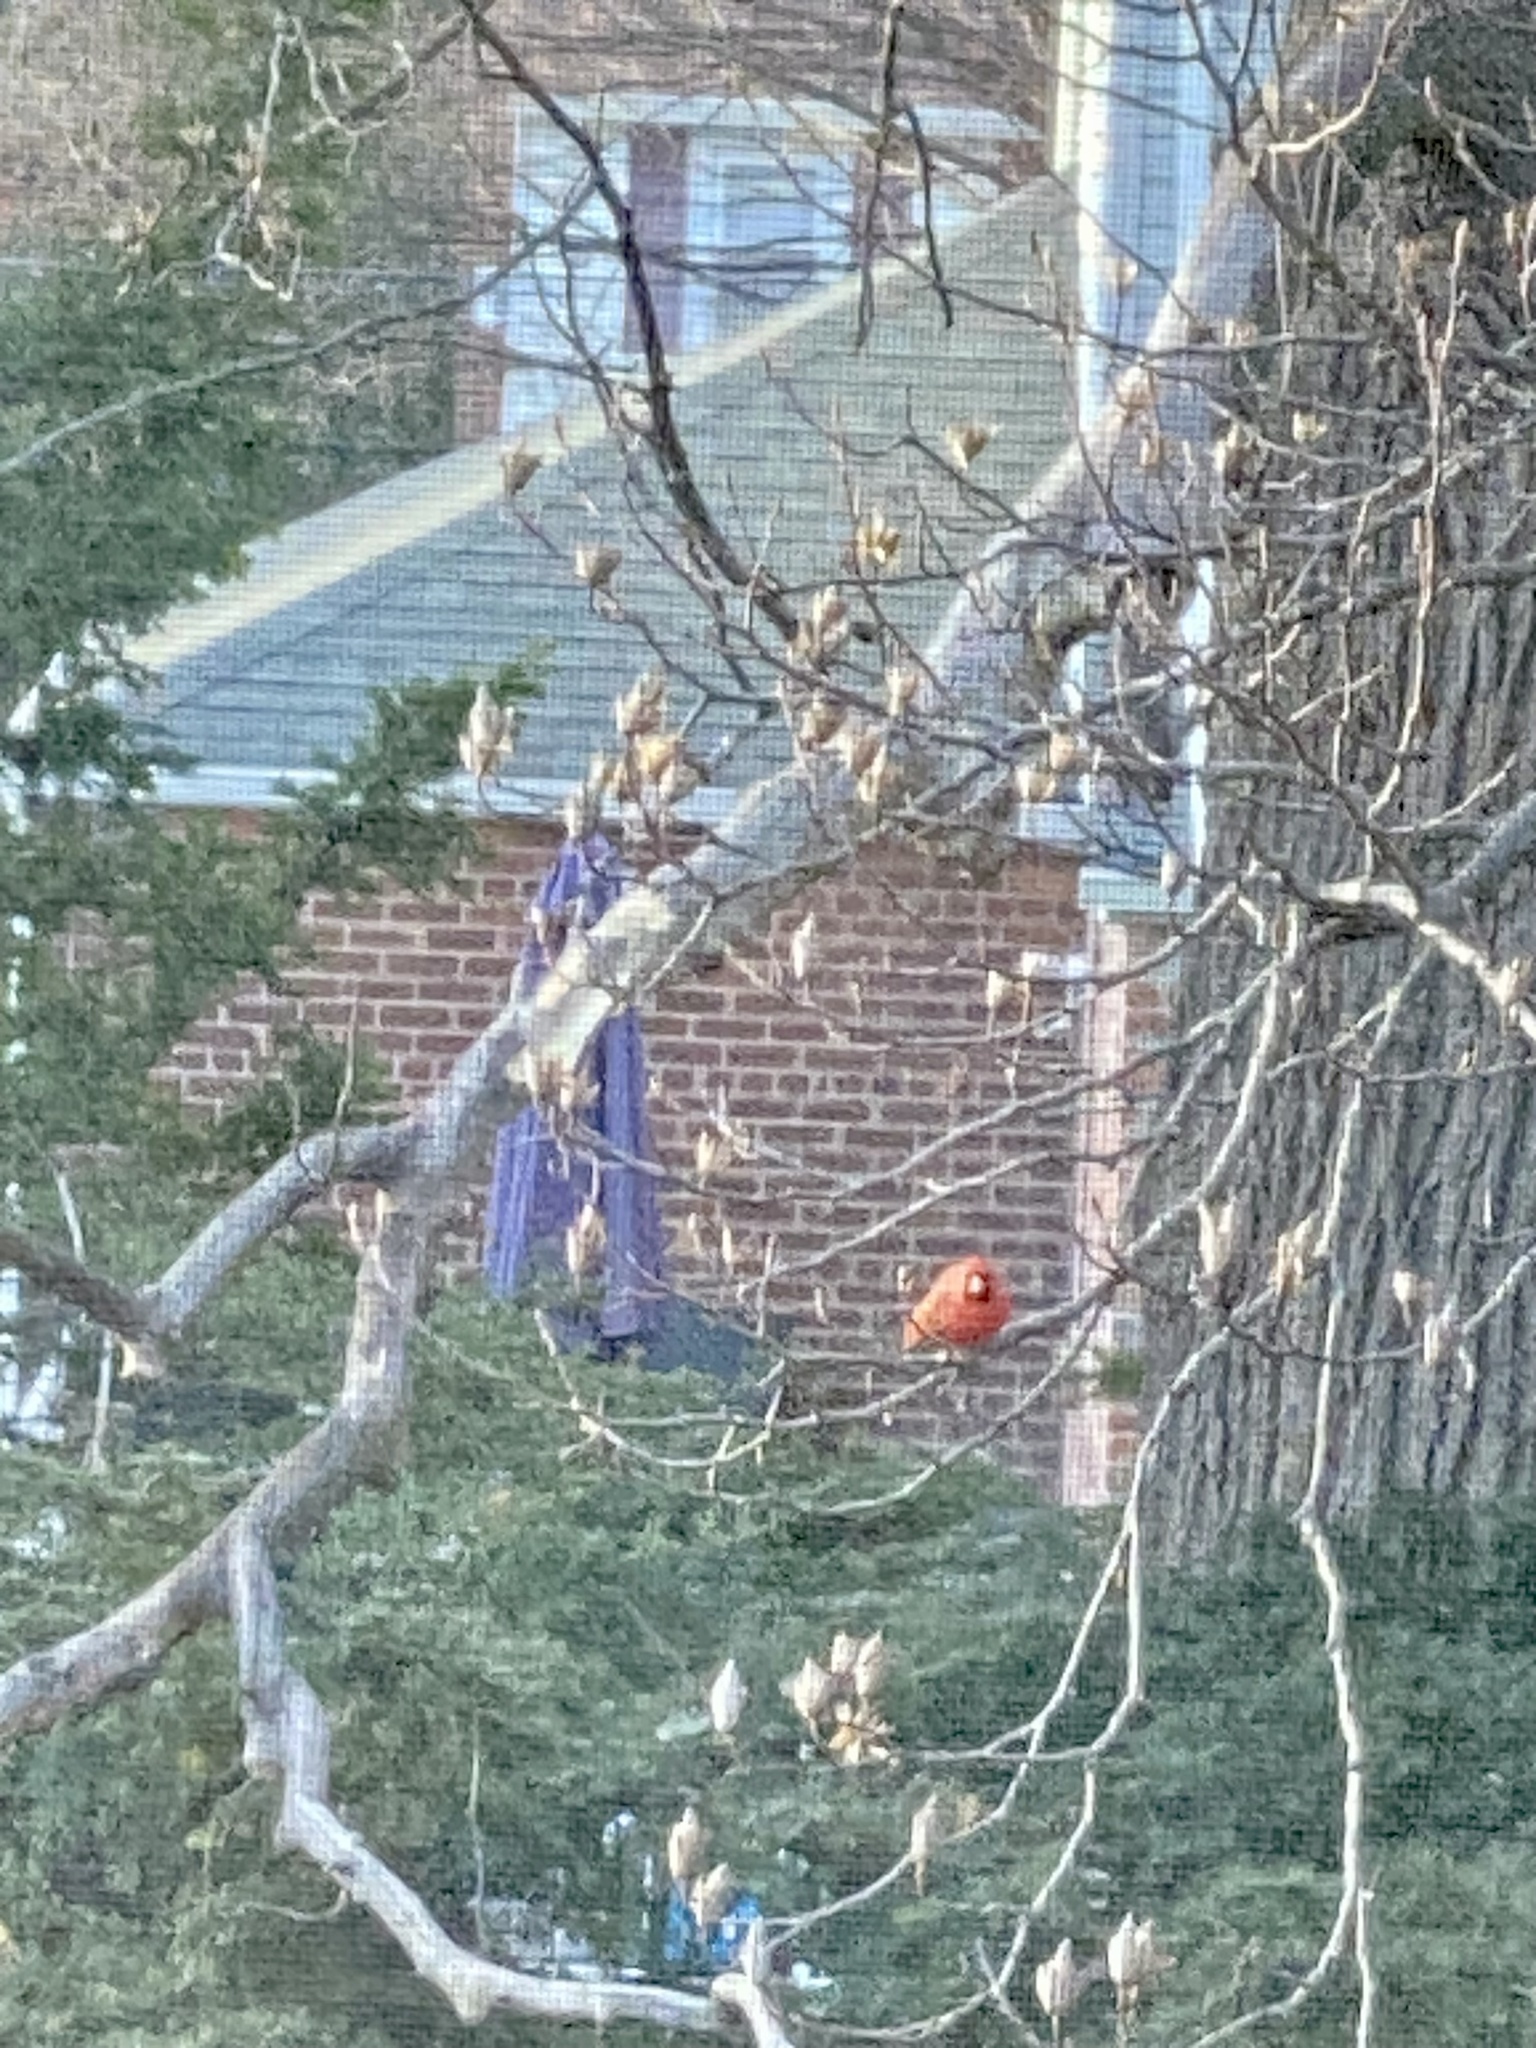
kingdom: Animalia
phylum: Chordata
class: Aves
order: Passeriformes
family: Cardinalidae
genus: Cardinalis
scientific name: Cardinalis cardinalis
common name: Northern cardinal
